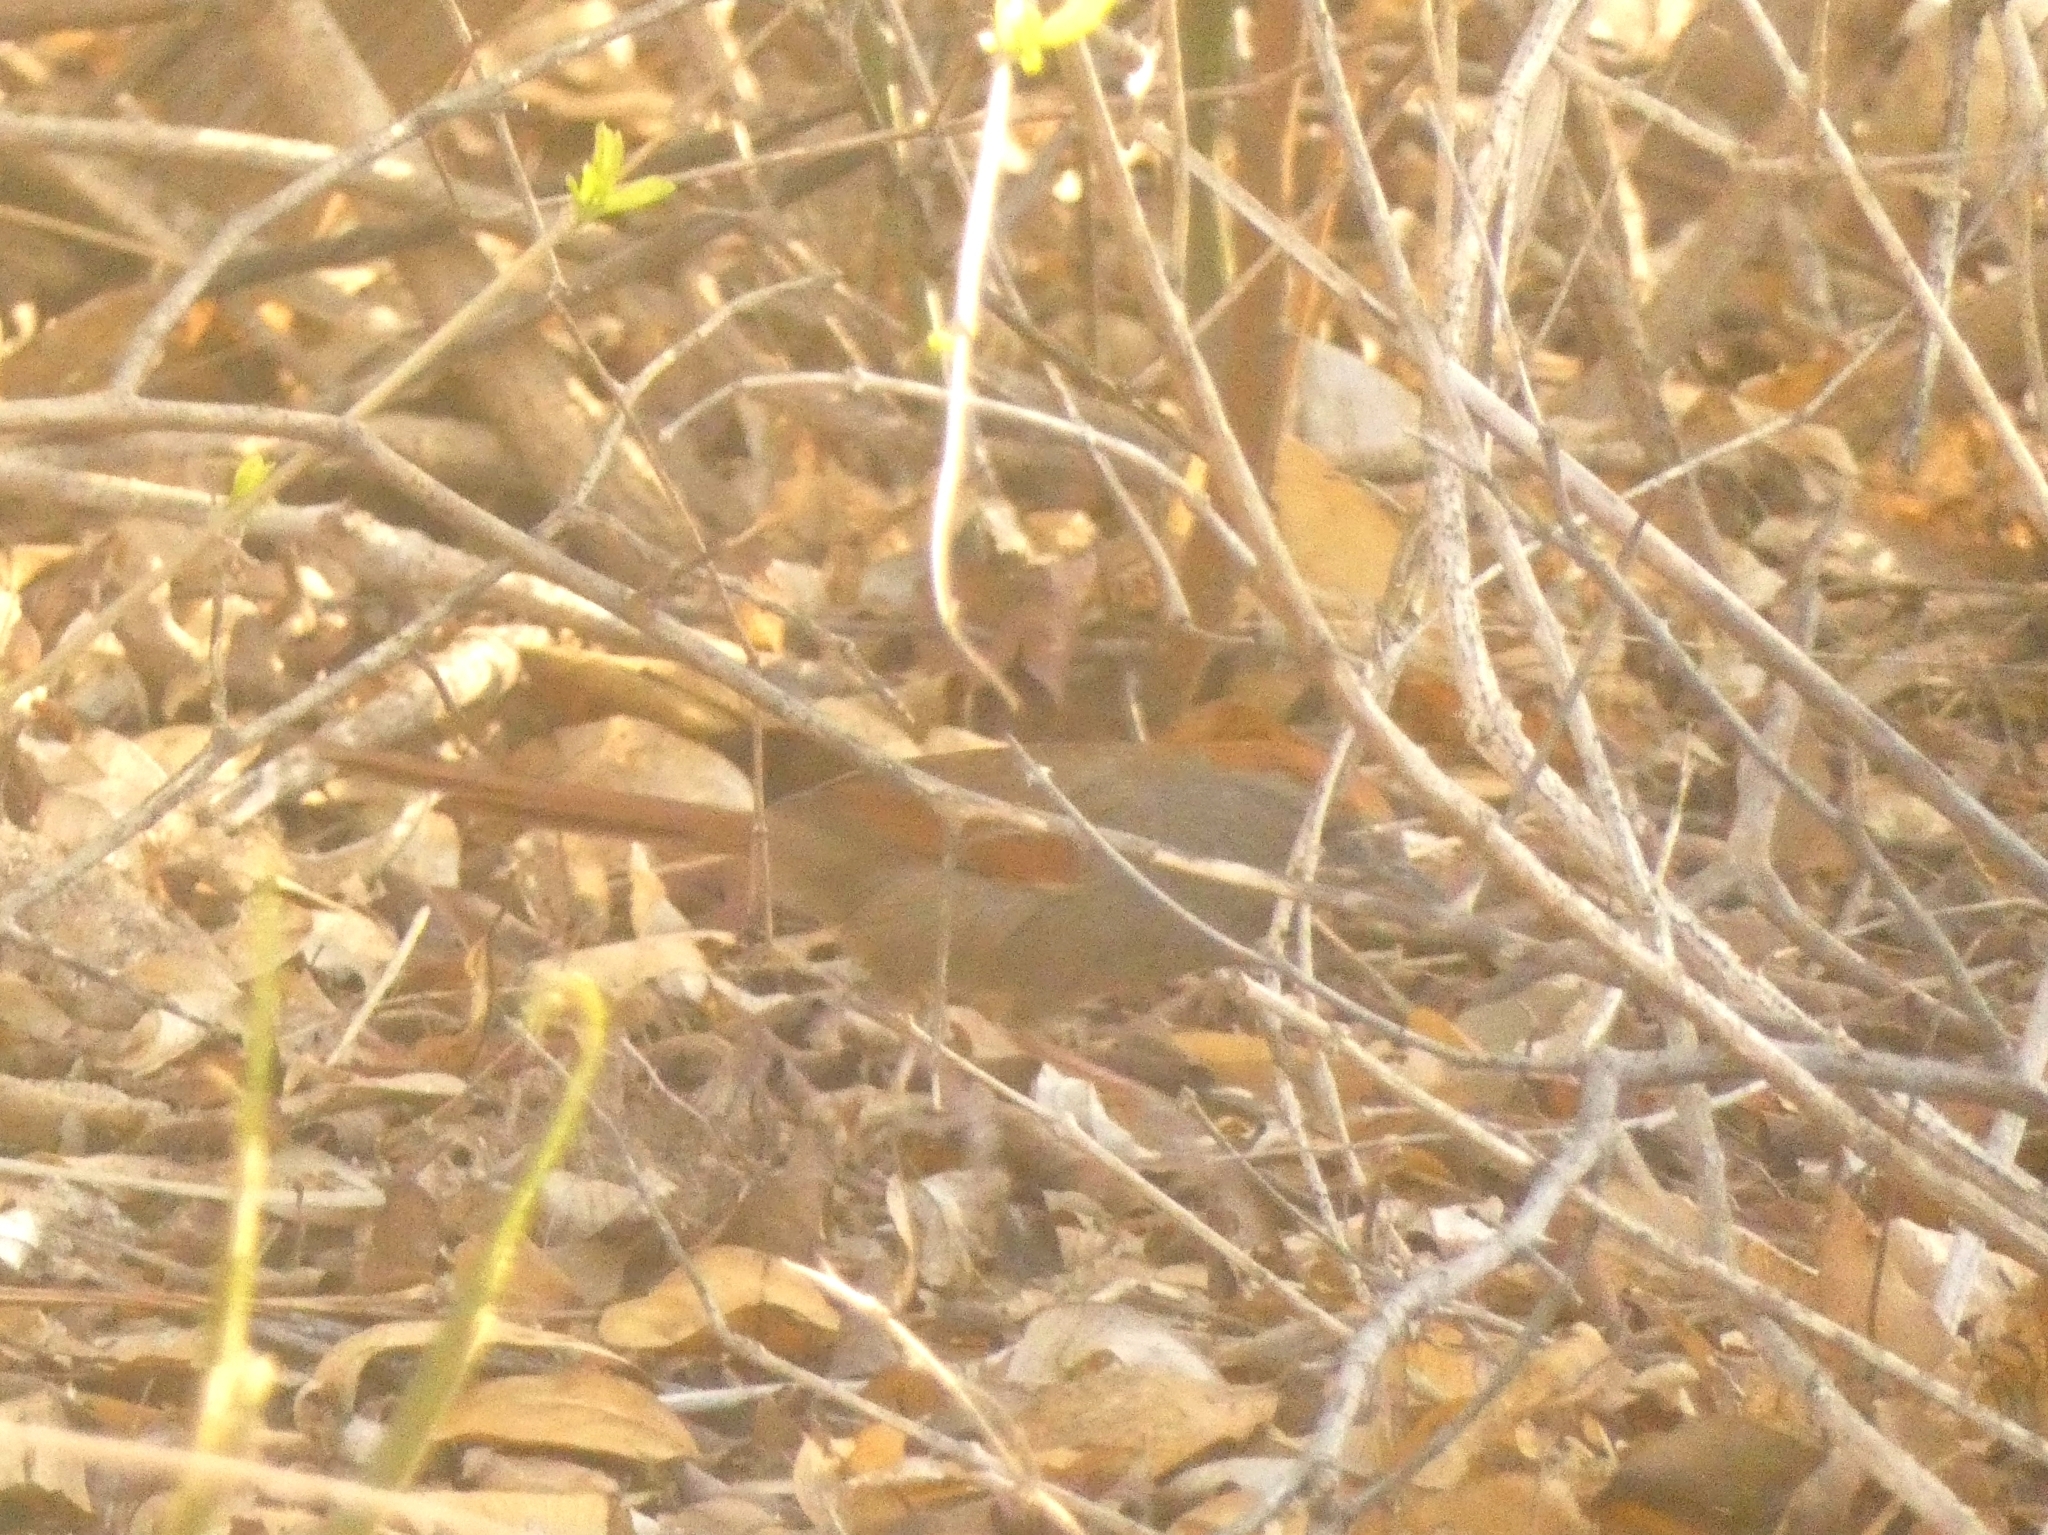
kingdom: Animalia
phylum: Chordata
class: Aves
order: Passeriformes
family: Furnariidae
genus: Synallaxis
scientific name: Synallaxis frontalis
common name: Sooty-fronted spinetail
